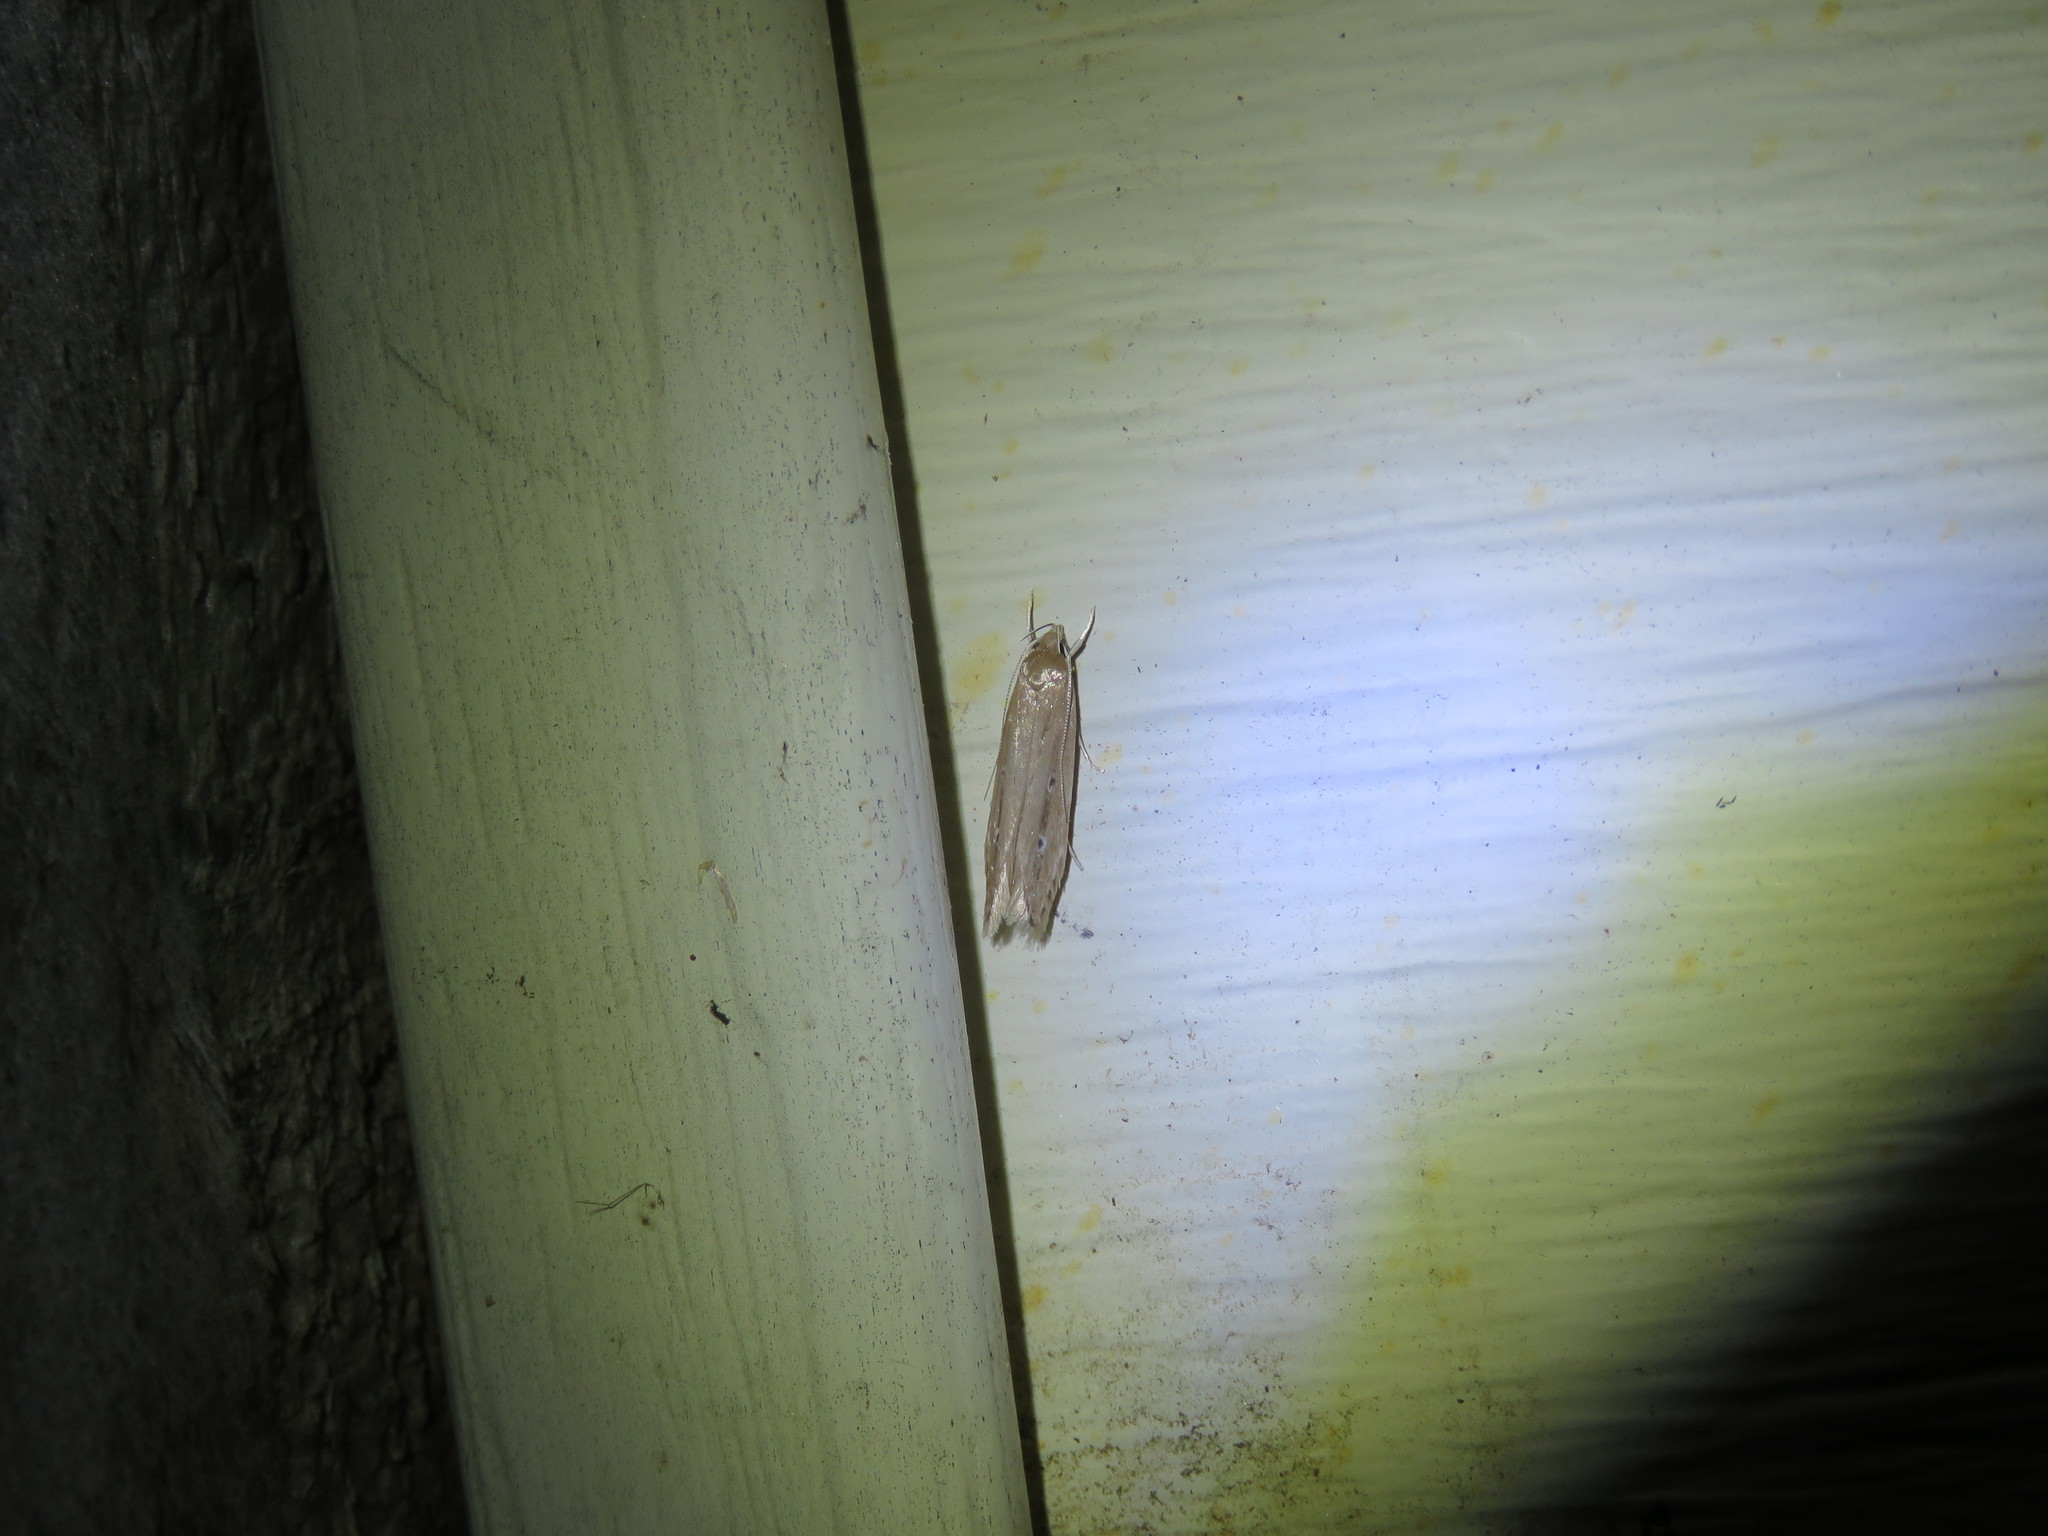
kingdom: Animalia
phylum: Arthropoda
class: Insecta
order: Lepidoptera
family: Cosmopterigidae
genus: Limnaecia
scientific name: Limnaecia phragmitella
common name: Bulrush cosmet
